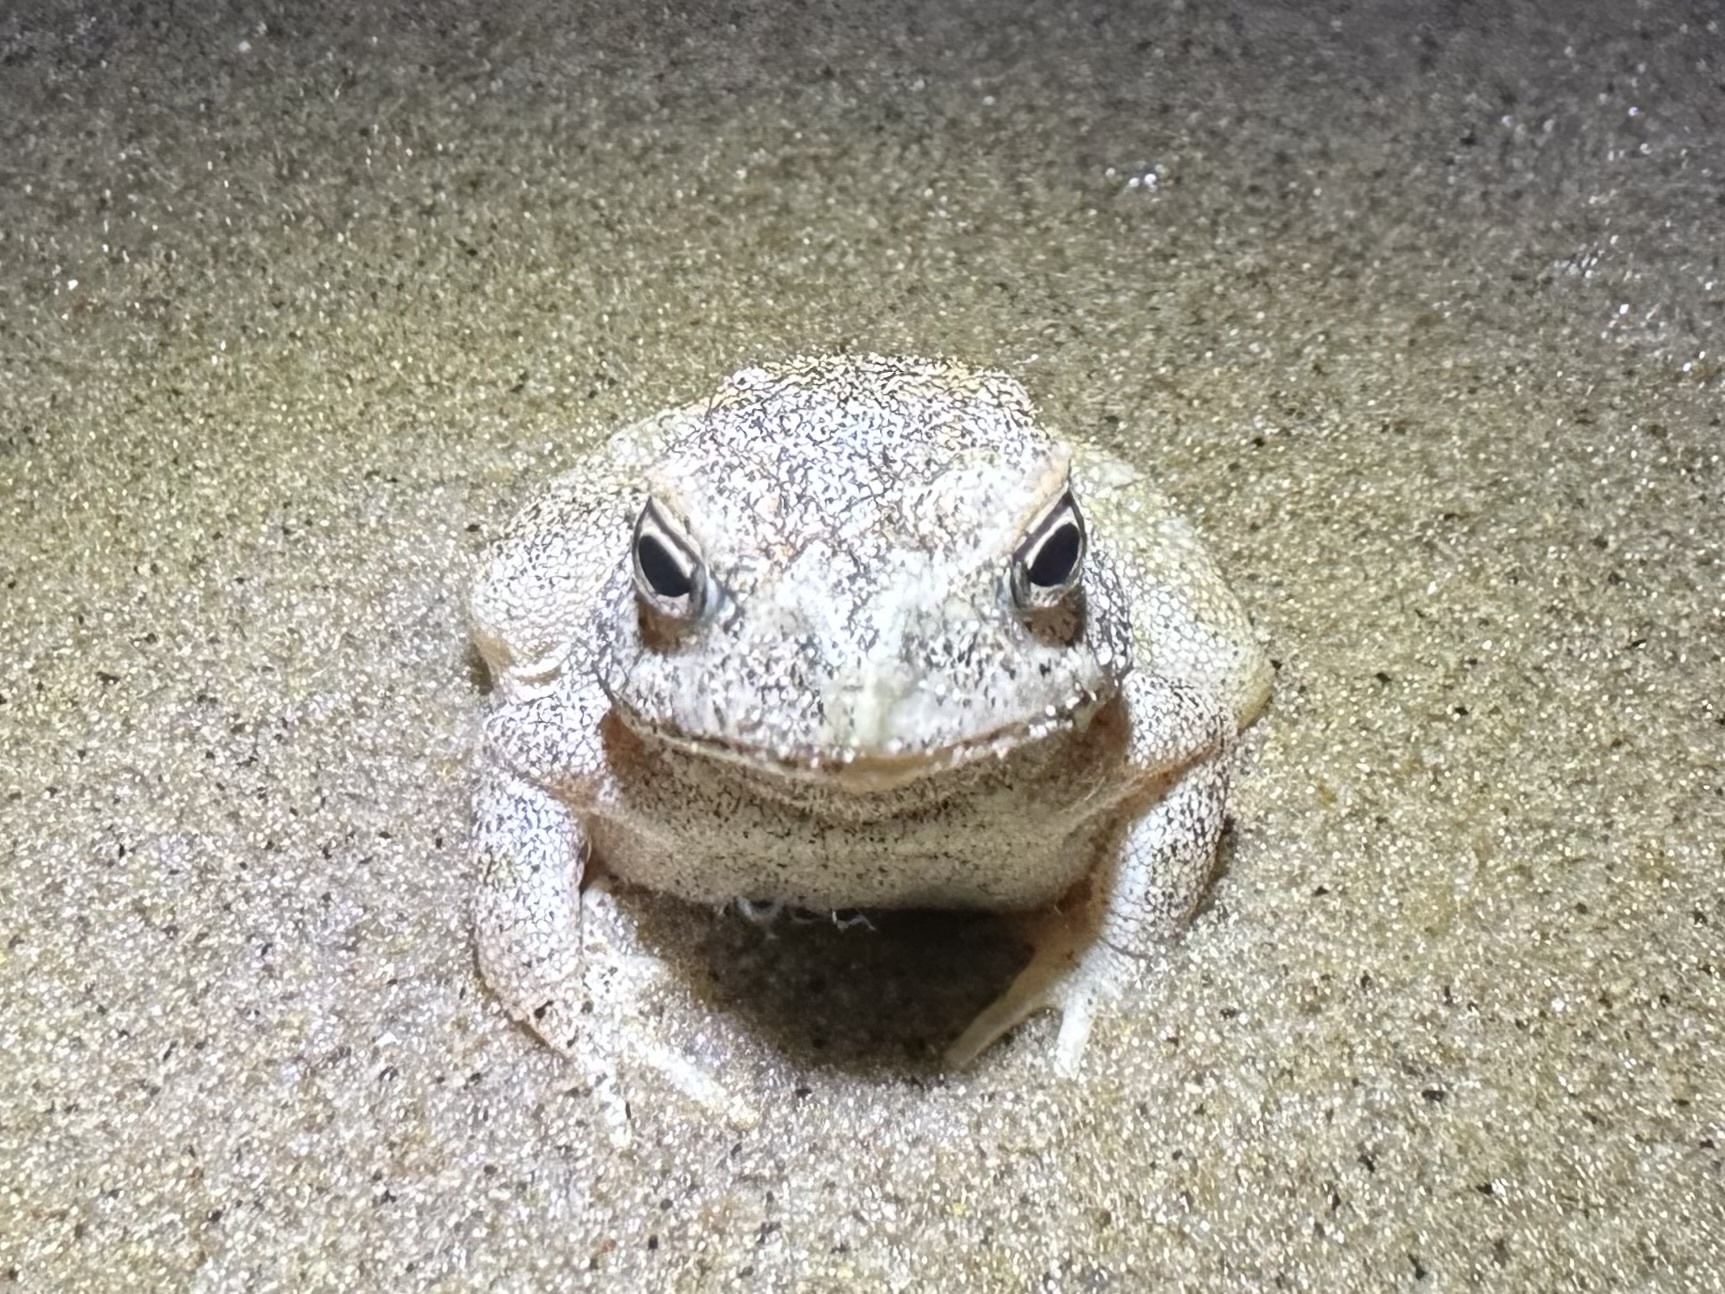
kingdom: Animalia
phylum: Chordata
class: Amphibia
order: Anura
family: Bufonidae
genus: Anaxyrus
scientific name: Anaxyrus fowleri
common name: Fowler's toad
